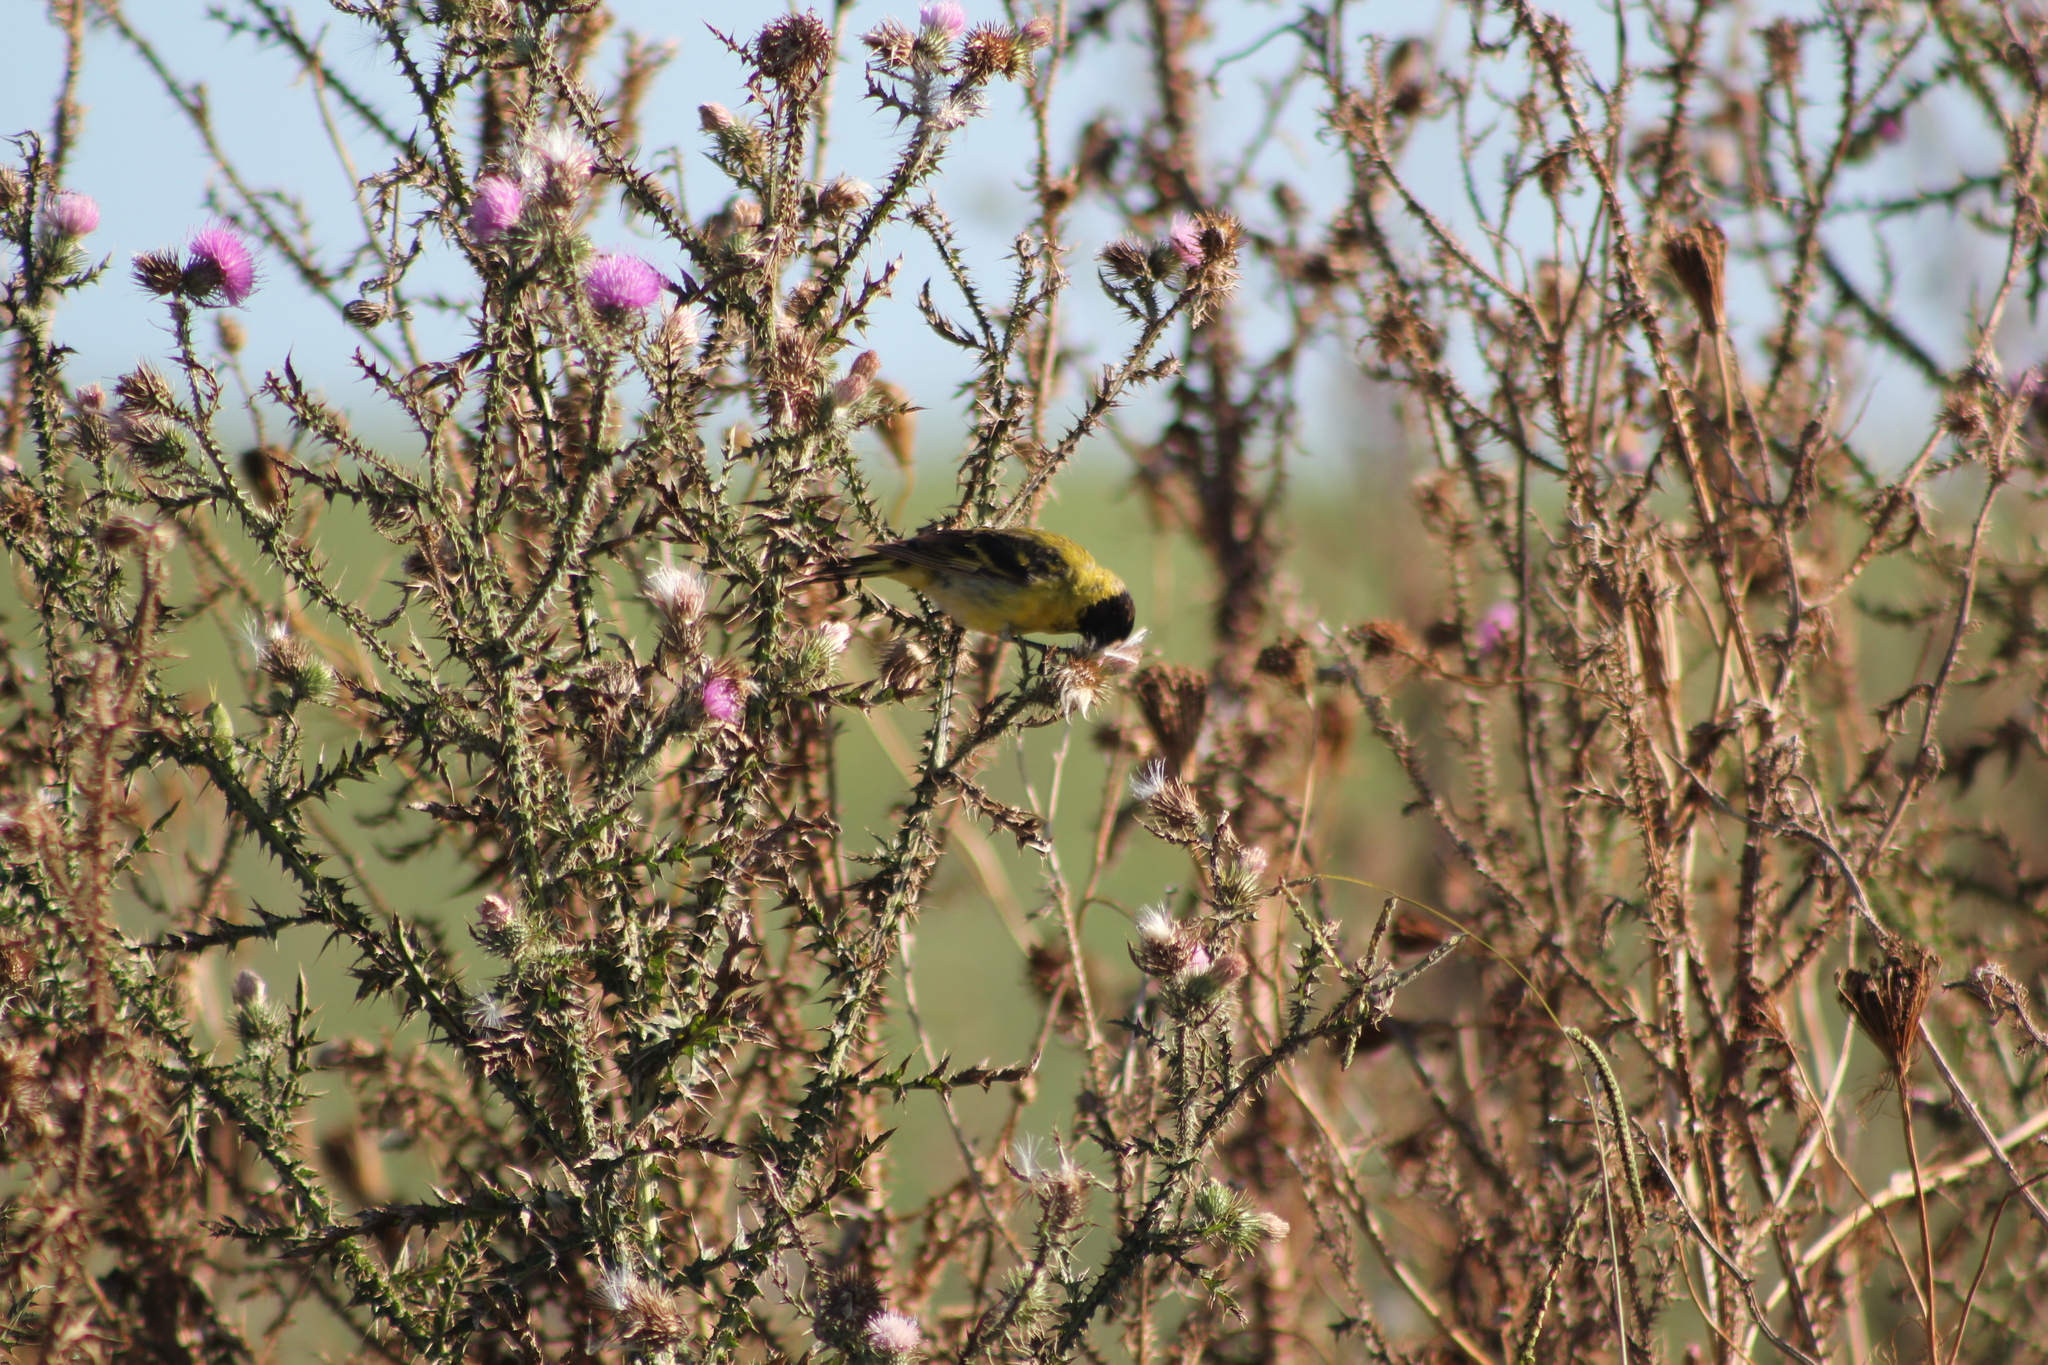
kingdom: Animalia
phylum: Chordata
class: Aves
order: Passeriformes
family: Fringillidae
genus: Spinus
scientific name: Spinus magellanicus
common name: Hooded siskin
